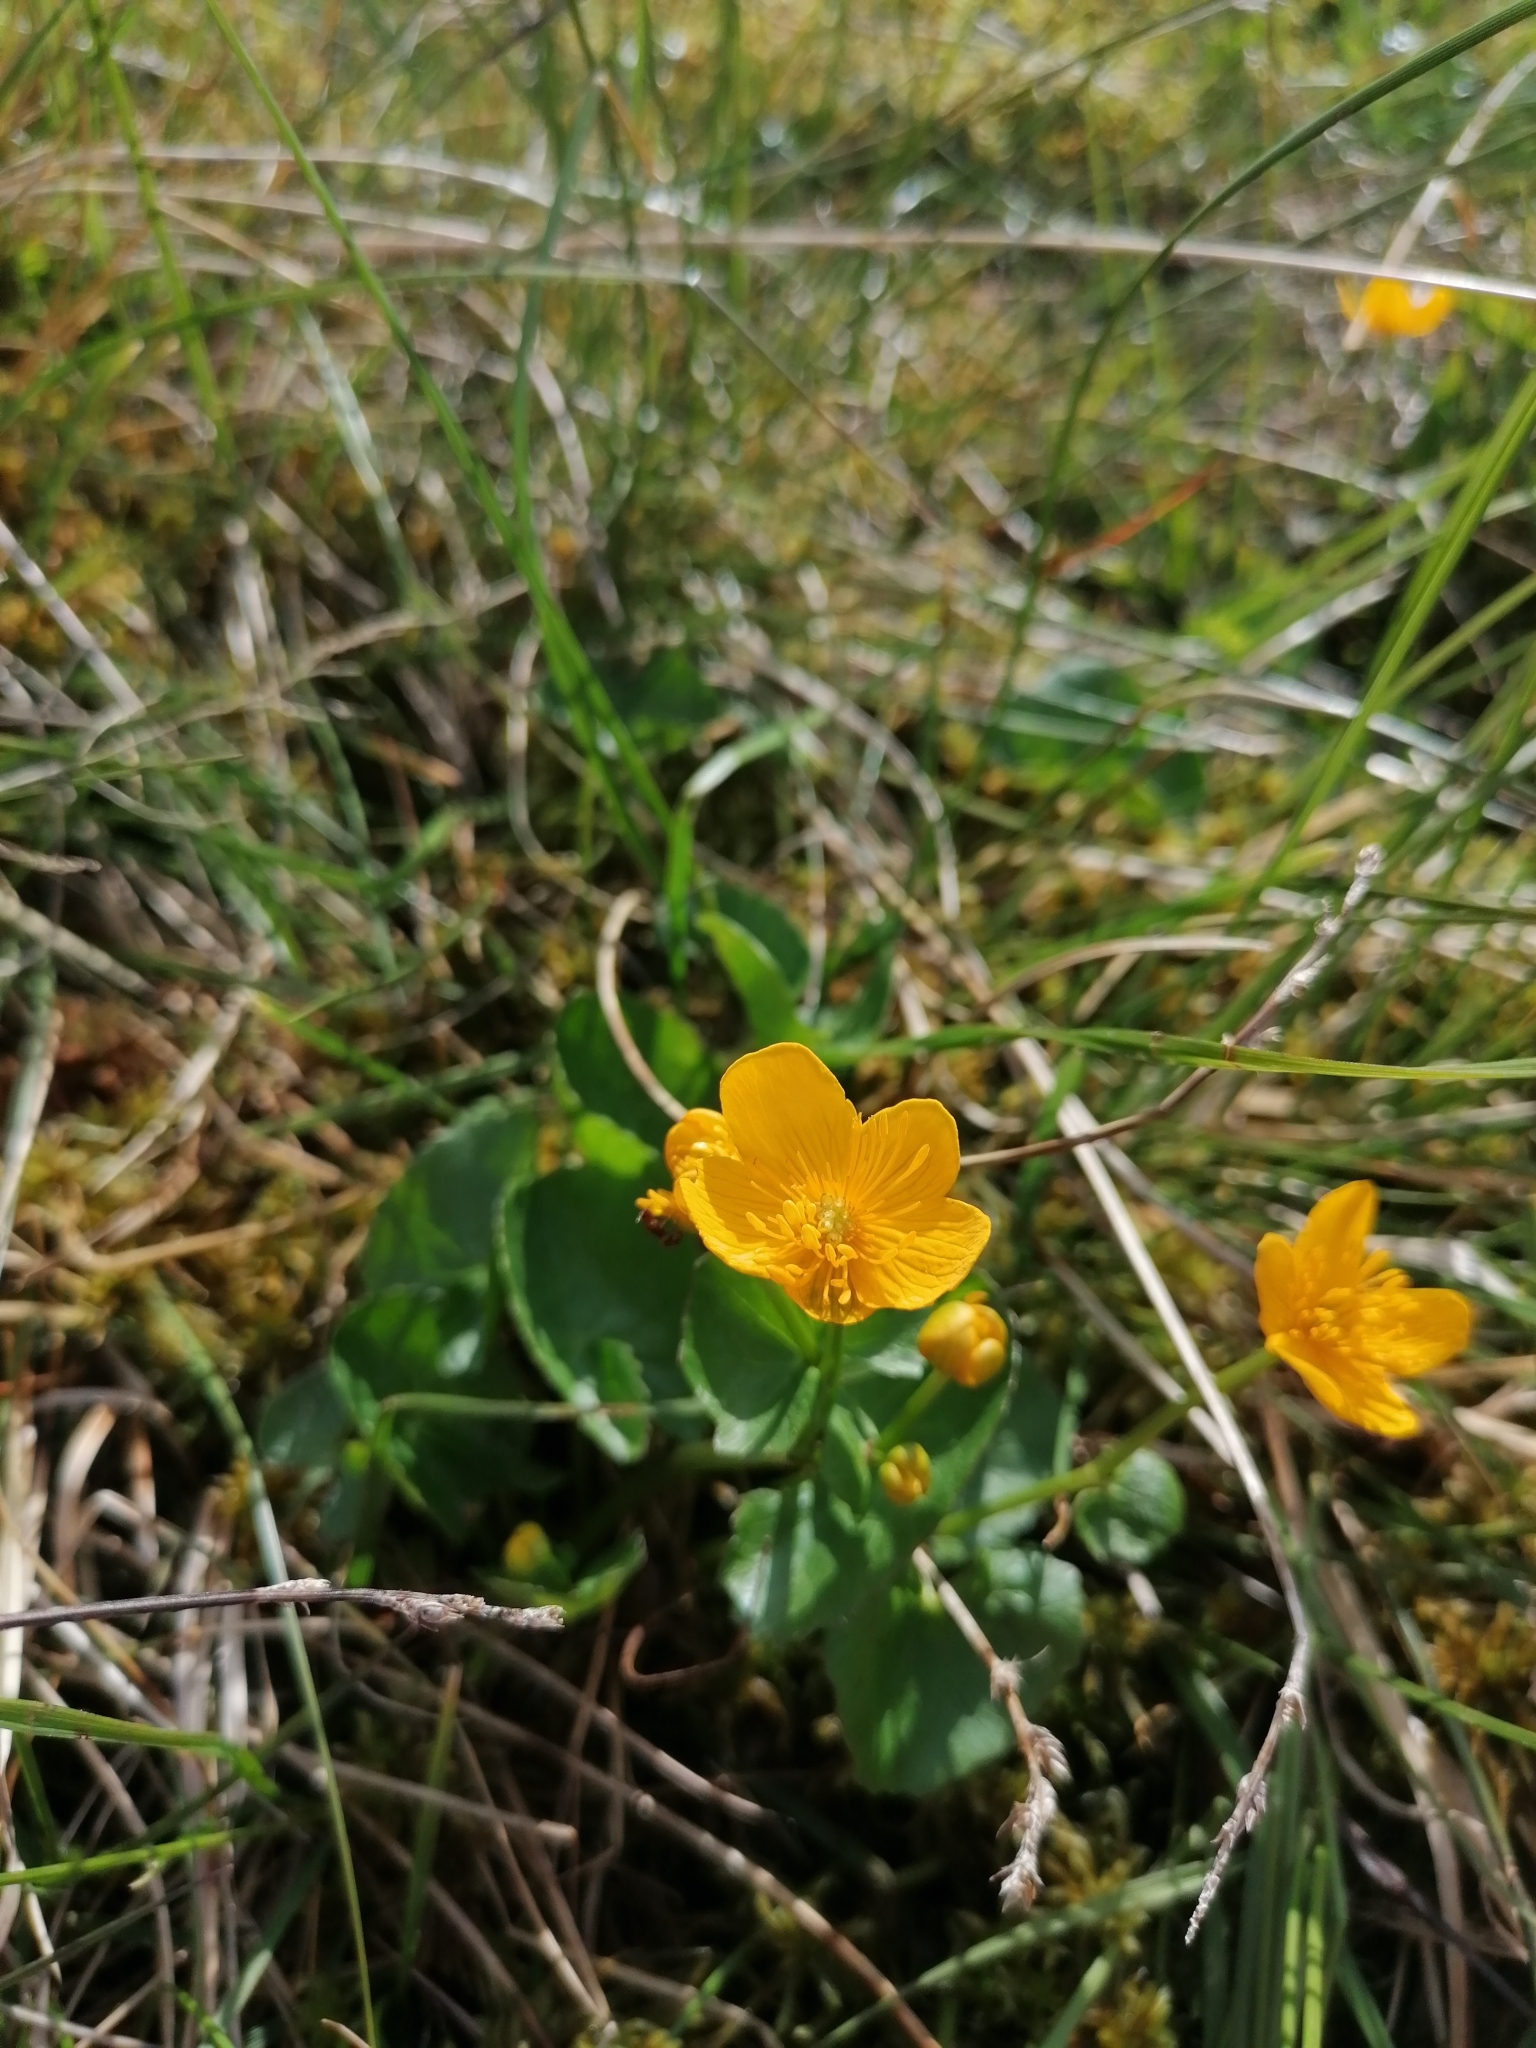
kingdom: Plantae
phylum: Tracheophyta
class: Magnoliopsida
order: Ranunculales
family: Ranunculaceae
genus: Caltha
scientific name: Caltha palustris
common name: Marsh marigold
